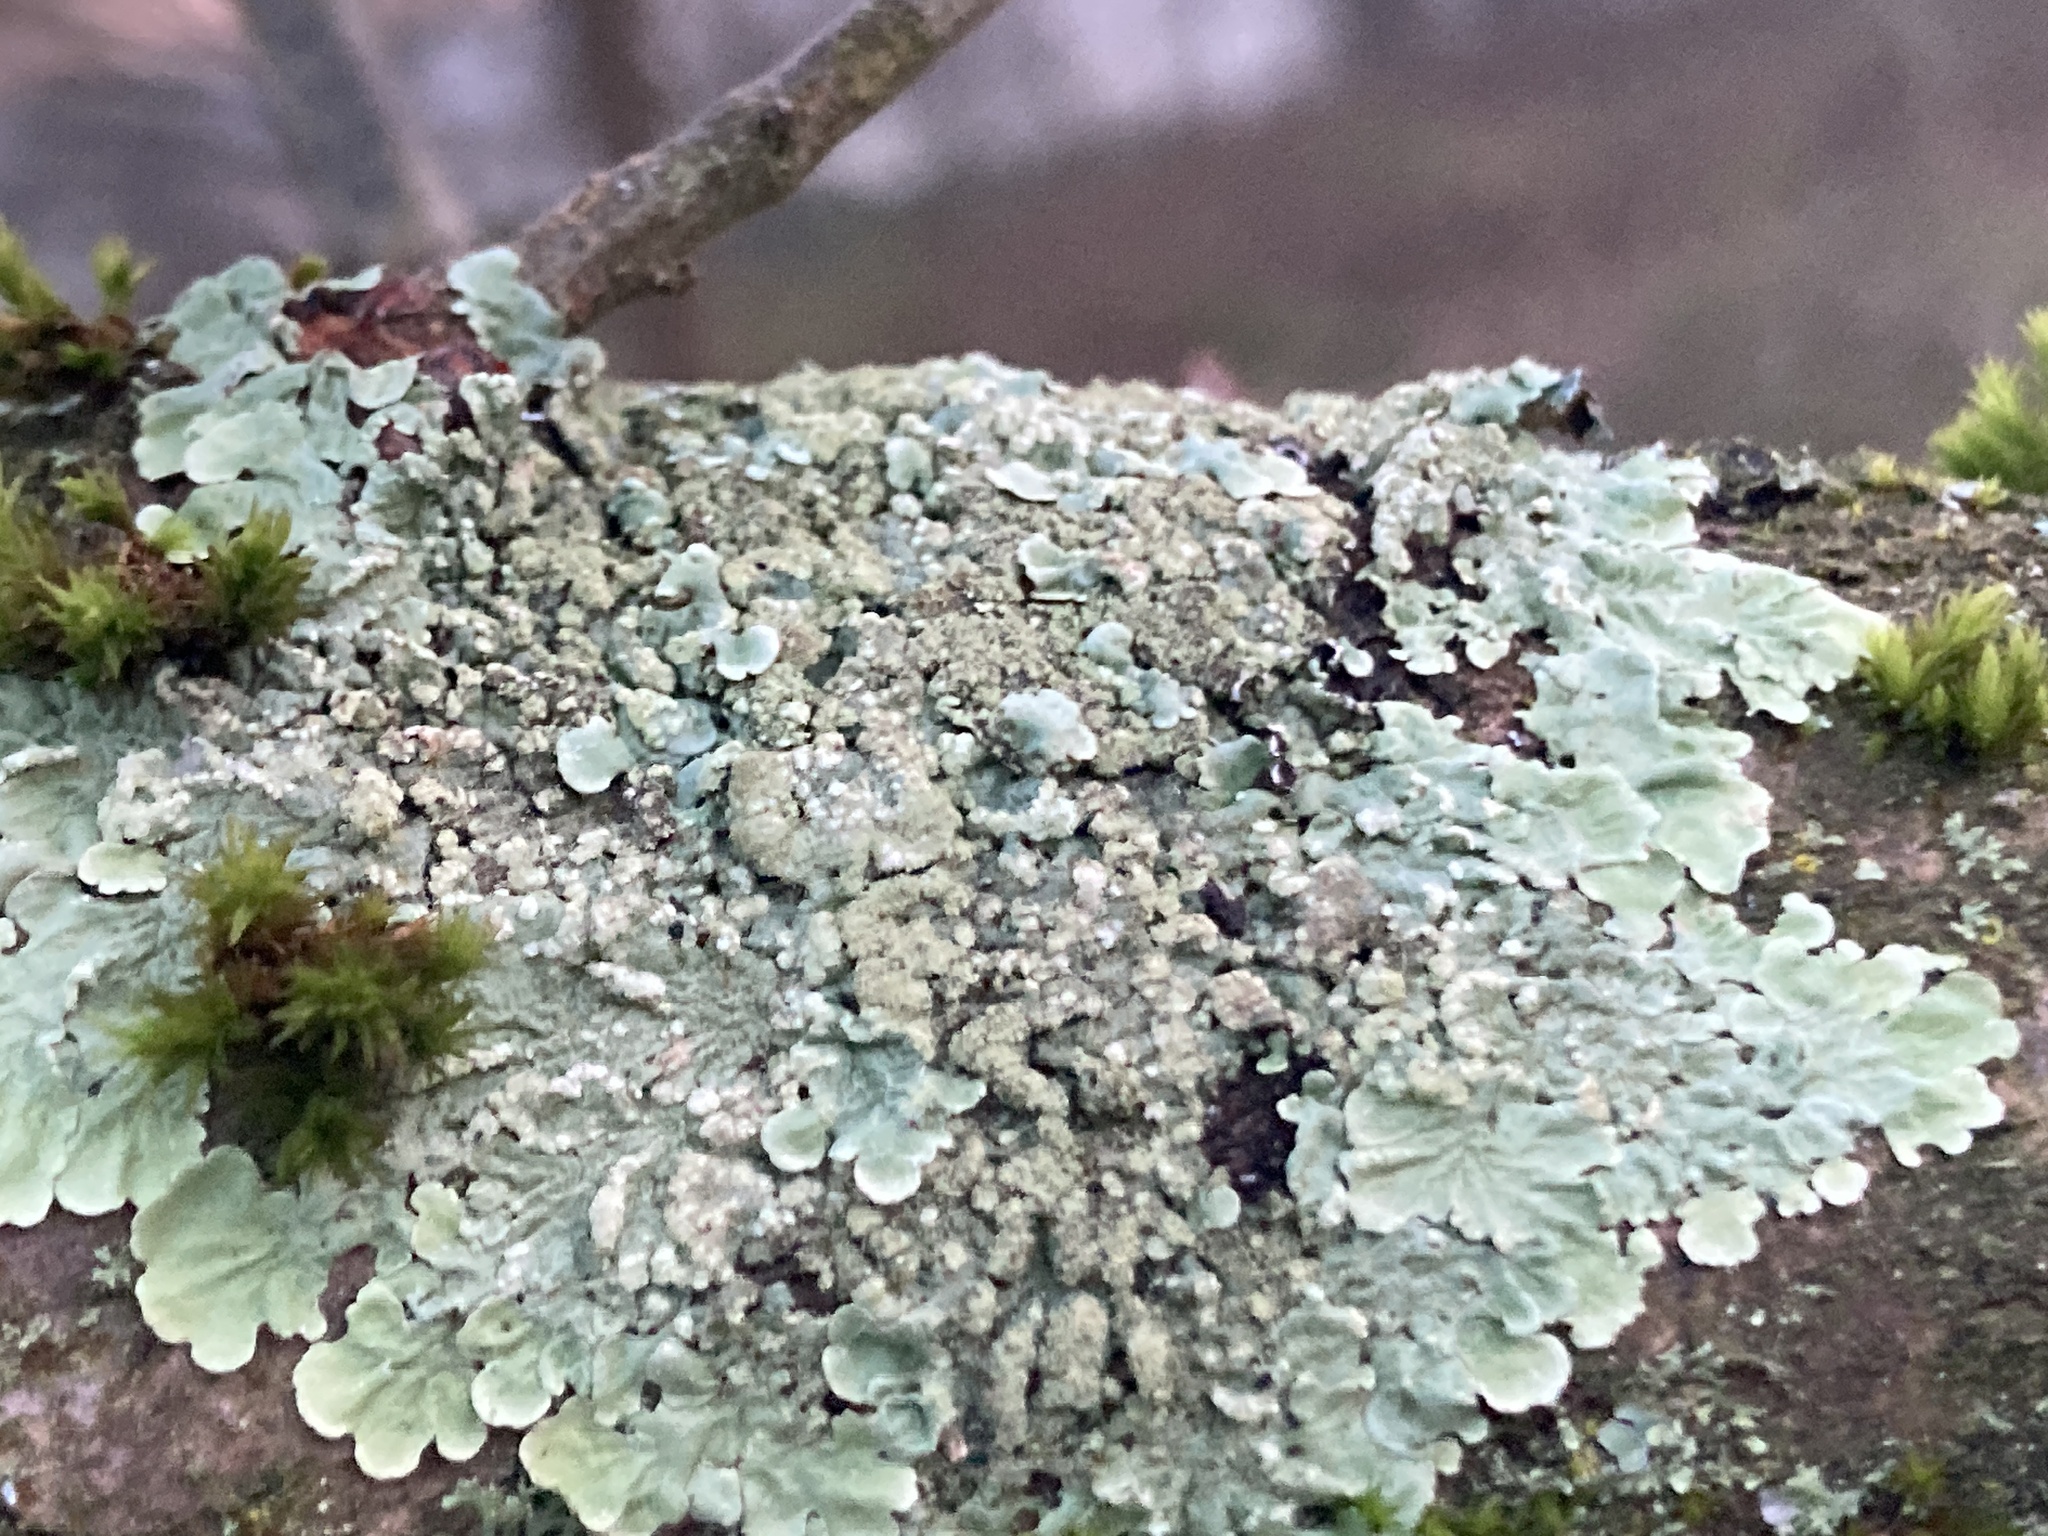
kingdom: Fungi
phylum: Ascomycota
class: Lecanoromycetes
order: Lecanorales
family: Parmeliaceae
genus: Flavoparmelia
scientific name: Flavoparmelia soredians
